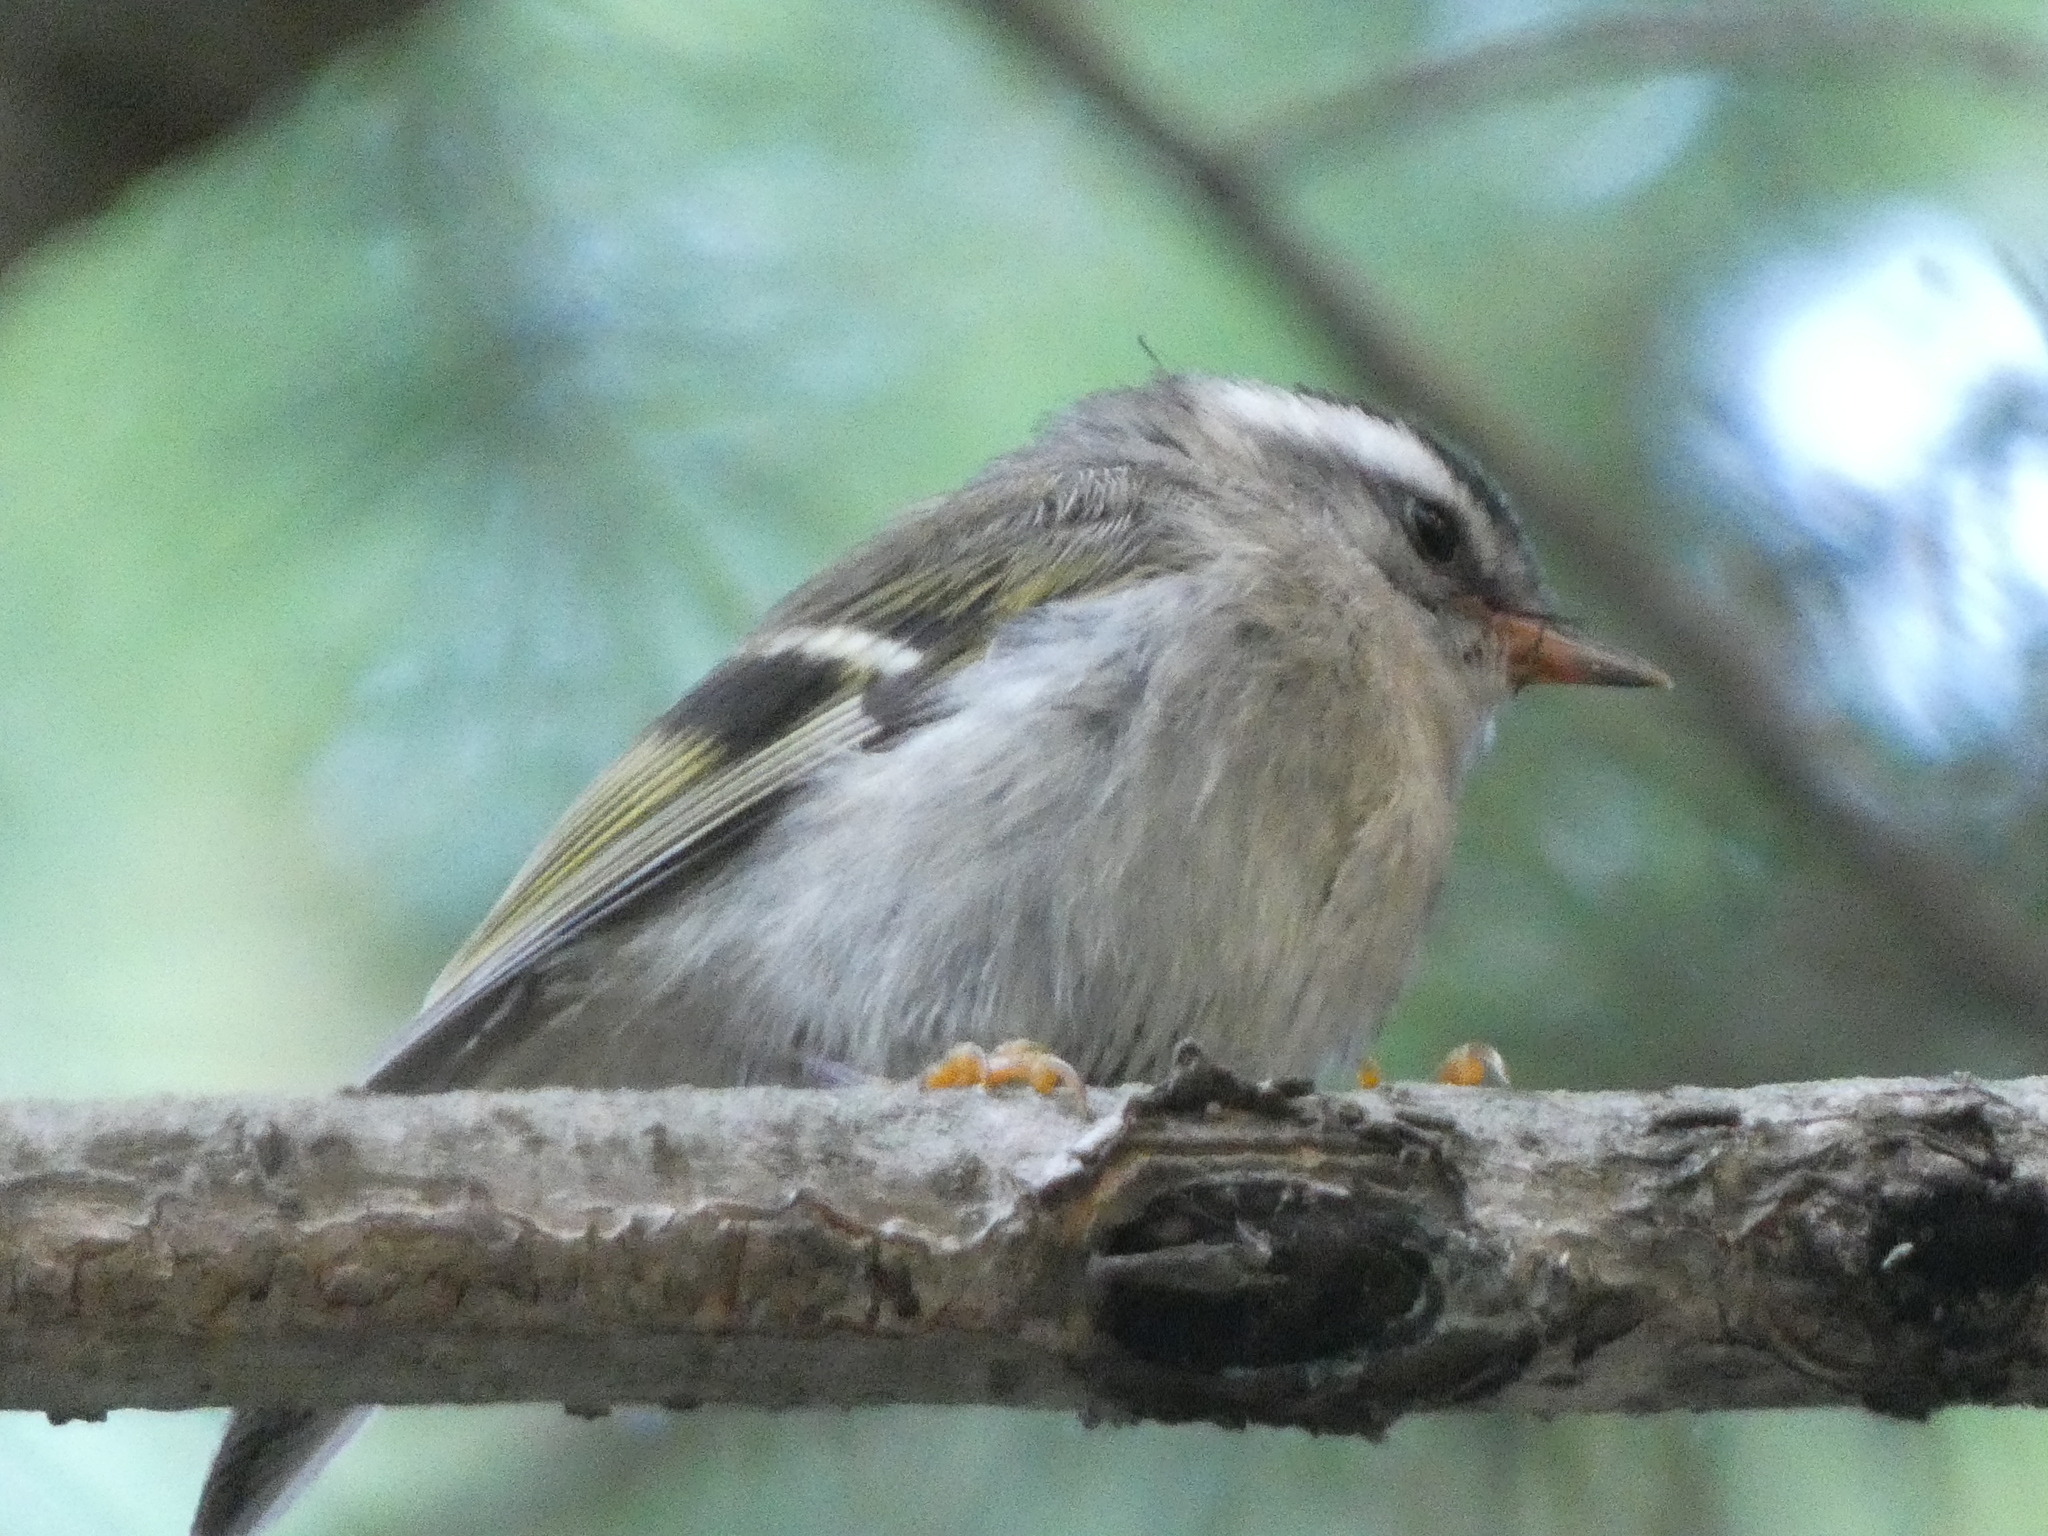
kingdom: Animalia
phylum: Chordata
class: Aves
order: Passeriformes
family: Regulidae
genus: Regulus
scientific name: Regulus satrapa
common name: Golden-crowned kinglet
